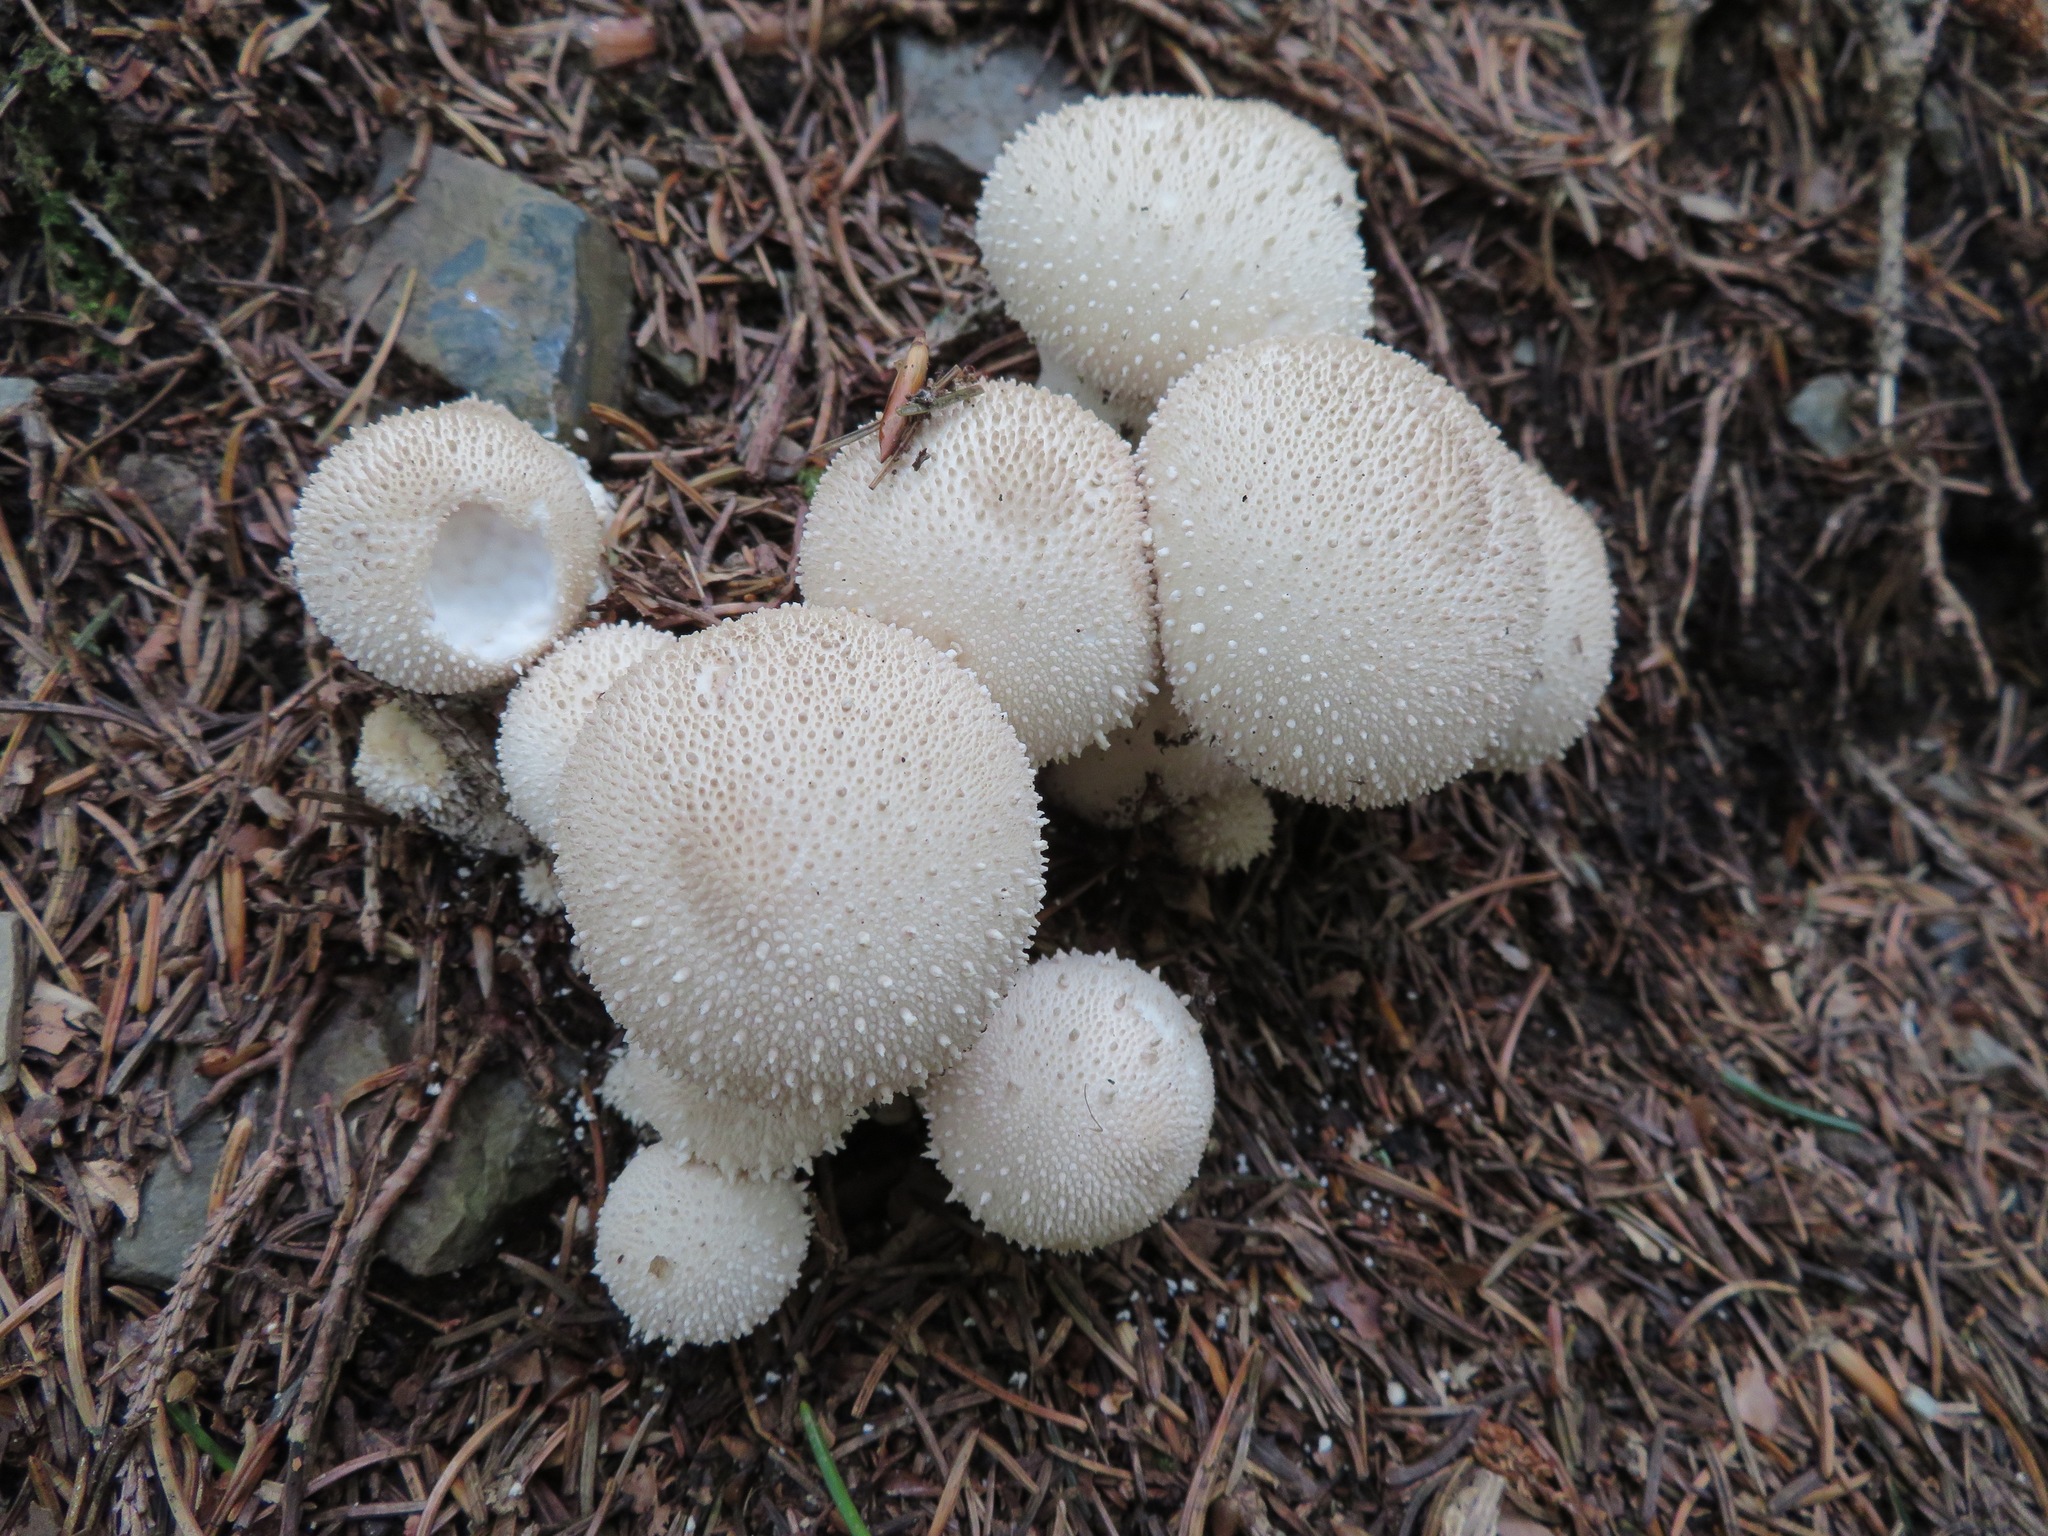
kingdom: Fungi
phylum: Basidiomycota
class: Agaricomycetes
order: Agaricales
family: Lycoperdaceae
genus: Lycoperdon
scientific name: Lycoperdon perlatum
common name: Common puffball
